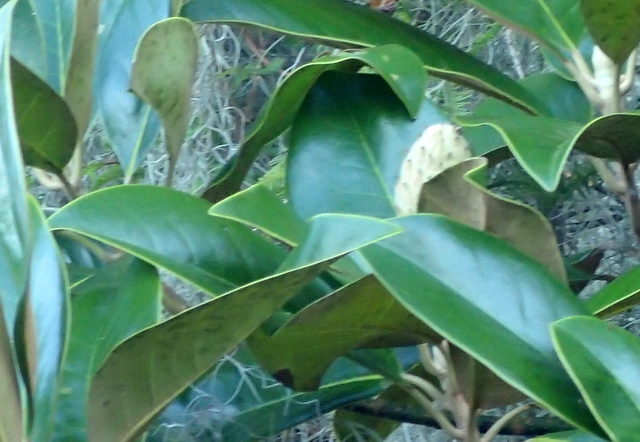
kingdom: Plantae
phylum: Tracheophyta
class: Magnoliopsida
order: Magnoliales
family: Magnoliaceae
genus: Magnolia
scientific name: Magnolia grandiflora
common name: Southern magnolia
